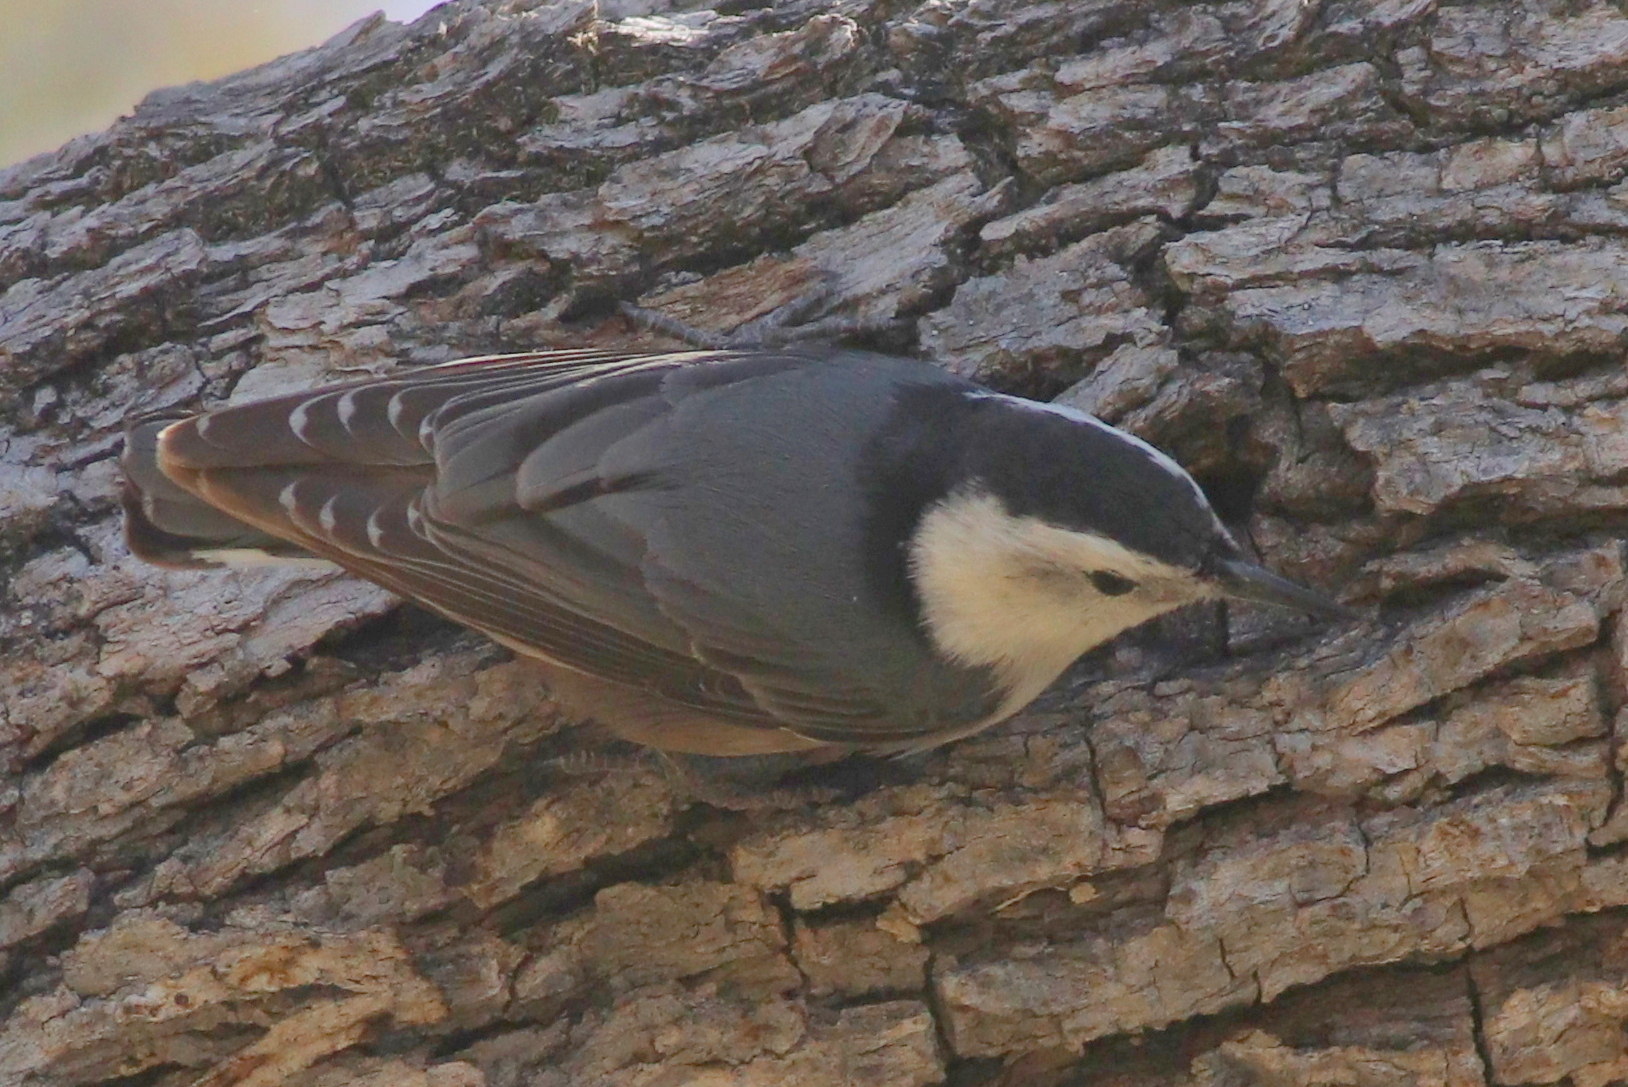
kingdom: Animalia
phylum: Chordata
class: Aves
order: Passeriformes
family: Sittidae
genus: Sitta
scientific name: Sitta carolinensis
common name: White-breasted nuthatch
